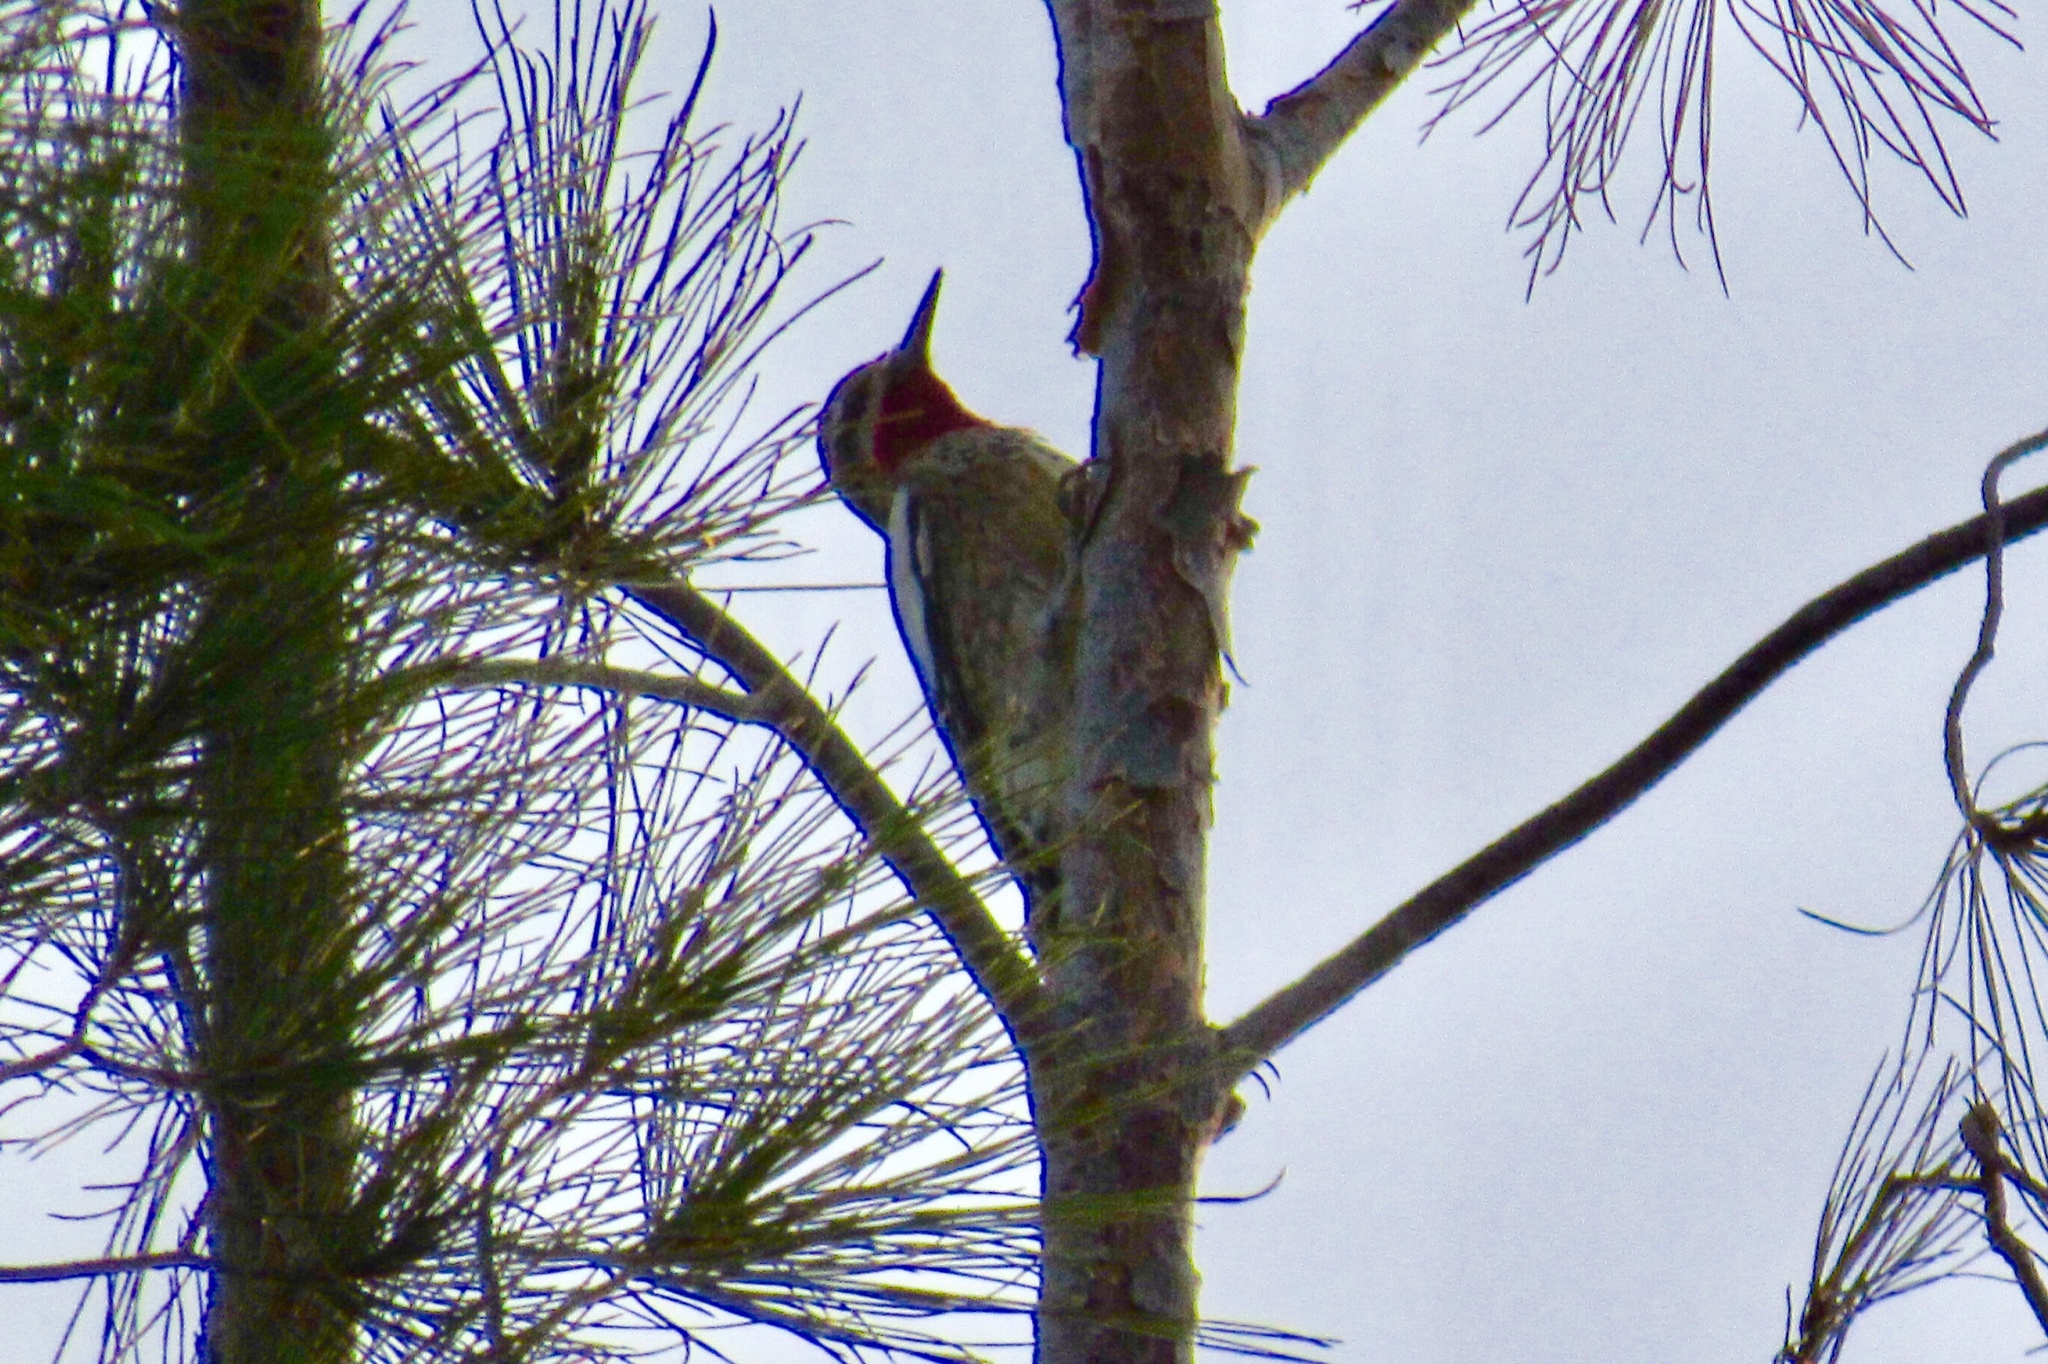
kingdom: Animalia
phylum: Chordata
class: Aves
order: Piciformes
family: Picidae
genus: Sphyrapicus
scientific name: Sphyrapicus nuchalis
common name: Red-naped sapsucker
